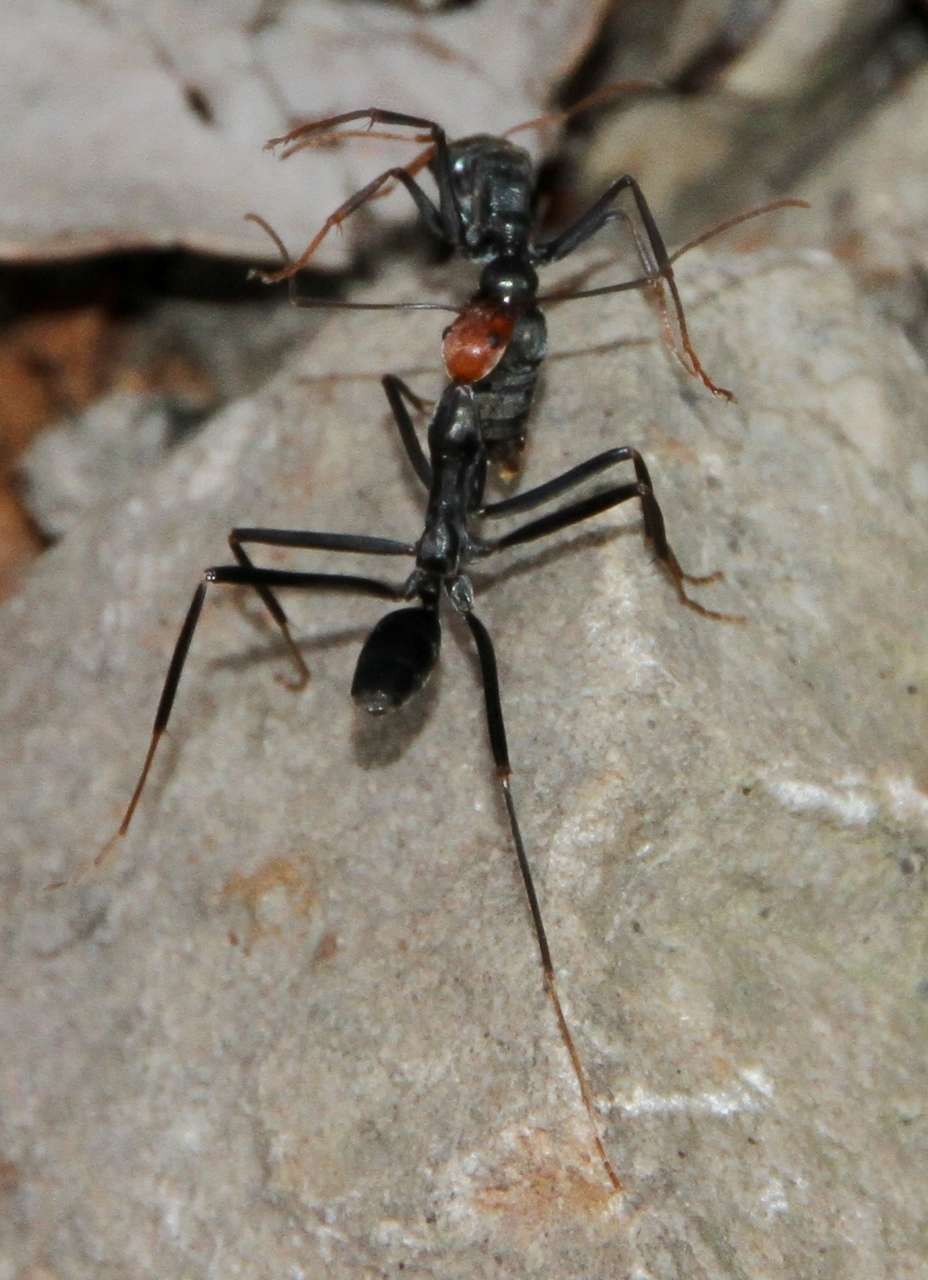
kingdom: Animalia
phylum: Arthropoda
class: Insecta
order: Hymenoptera
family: Formicidae
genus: Myrmecia
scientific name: Myrmecia pilosula
